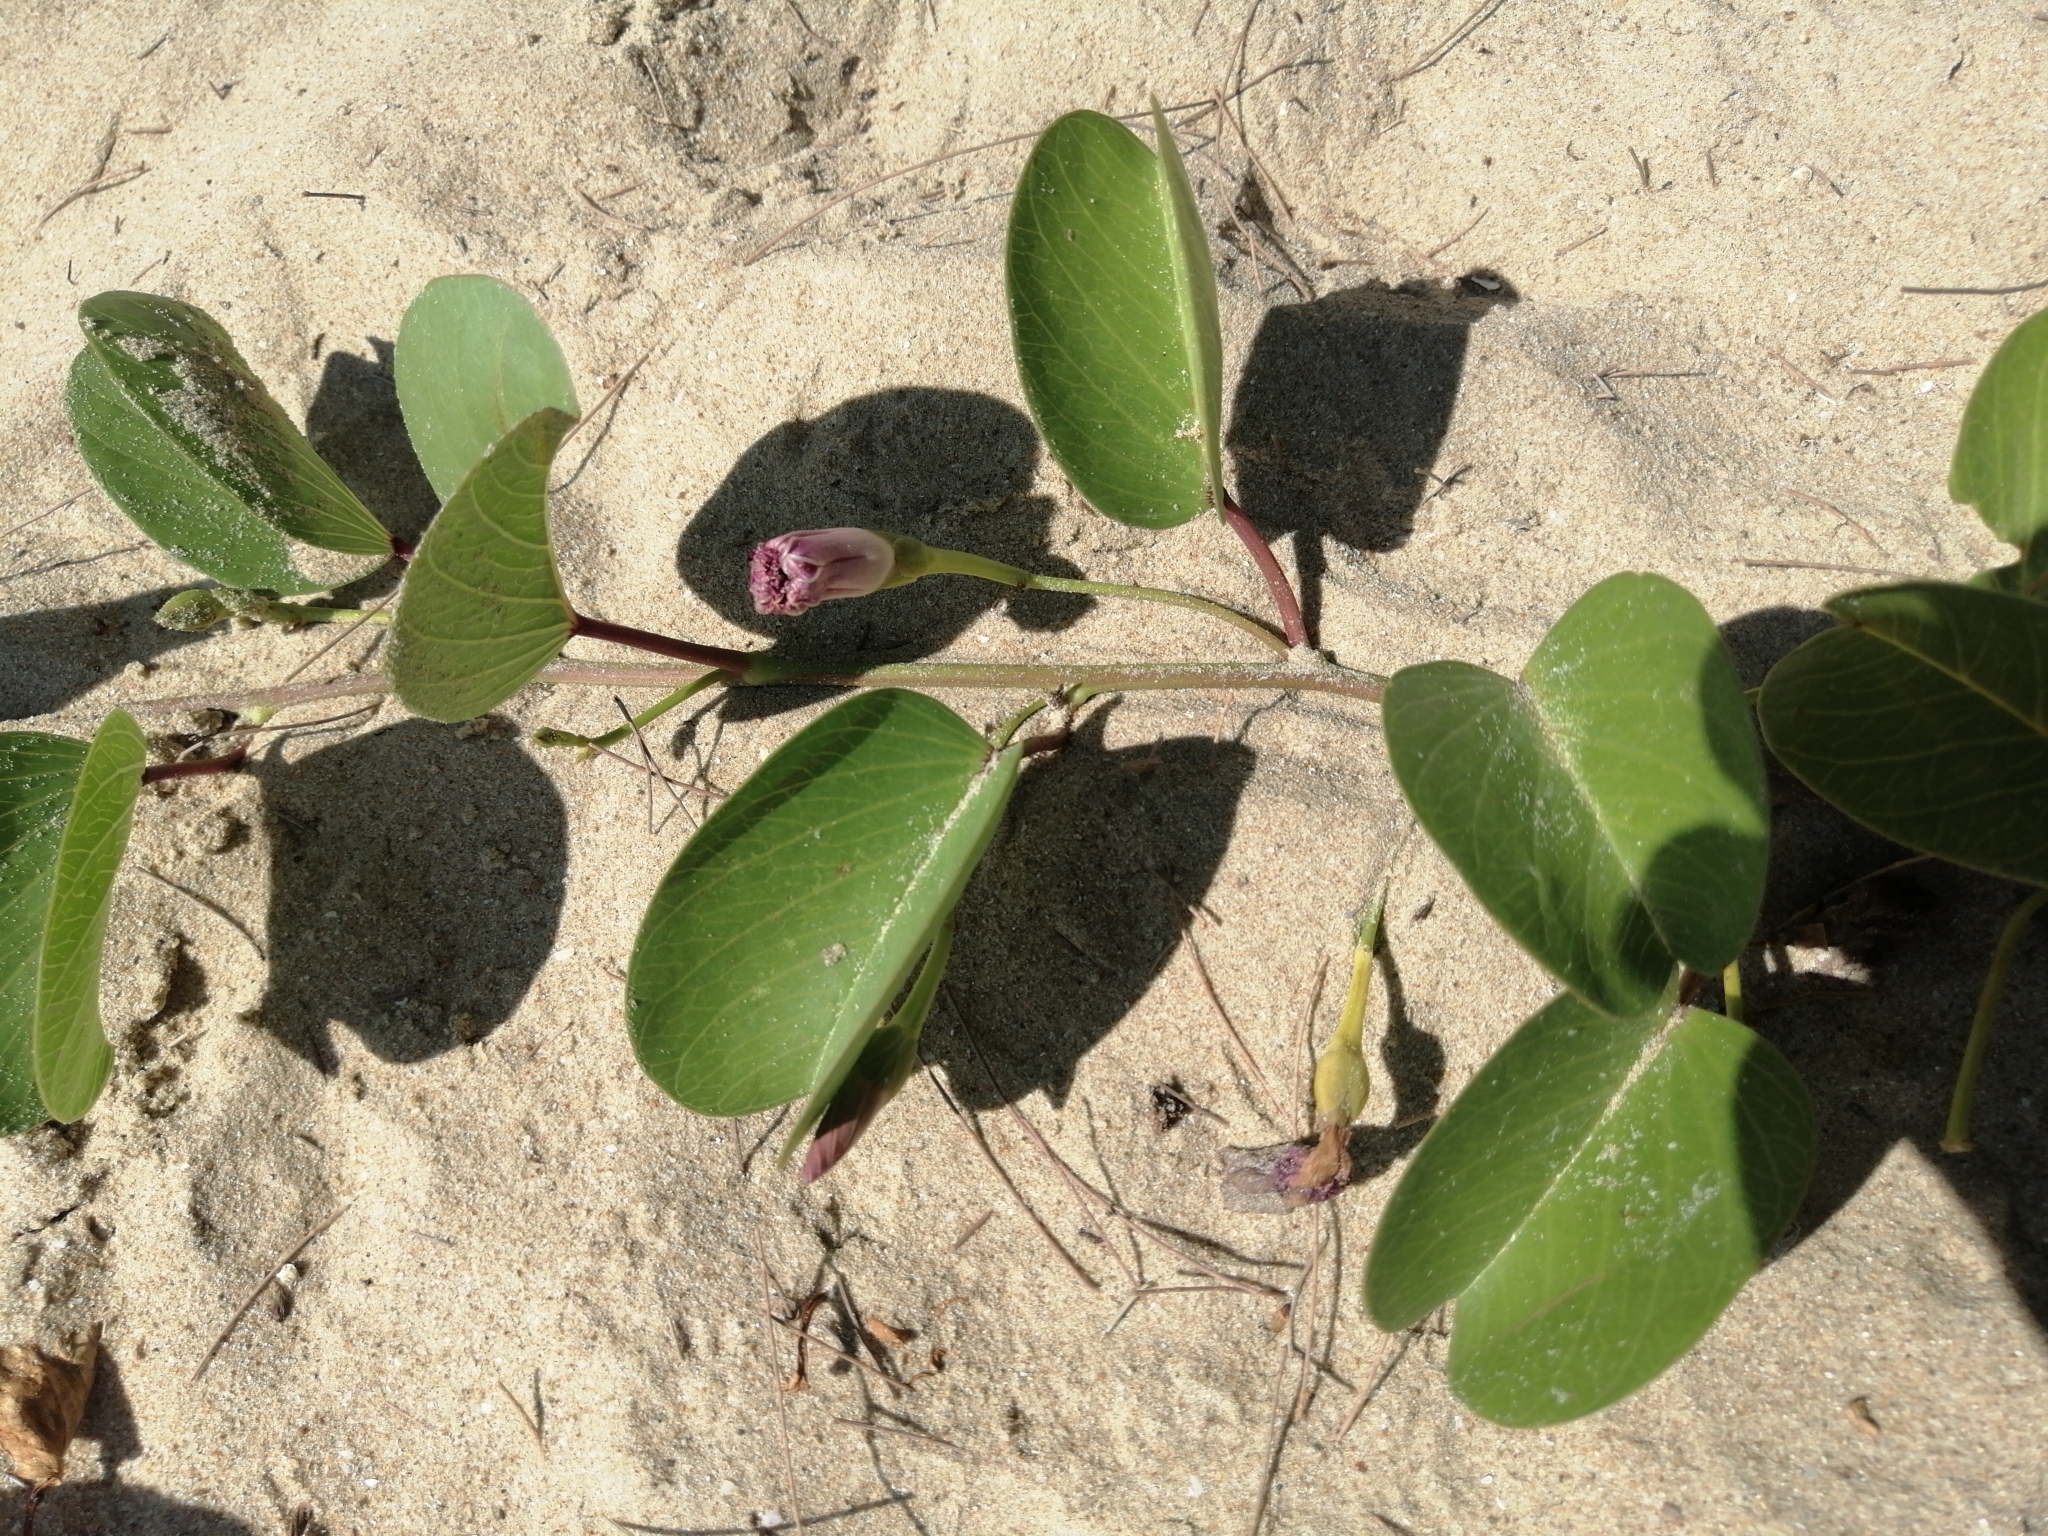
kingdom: Plantae
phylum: Tracheophyta
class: Magnoliopsida
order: Solanales
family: Convolvulaceae
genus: Ipomoea
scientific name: Ipomoea pes-caprae
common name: Beach morning glory
